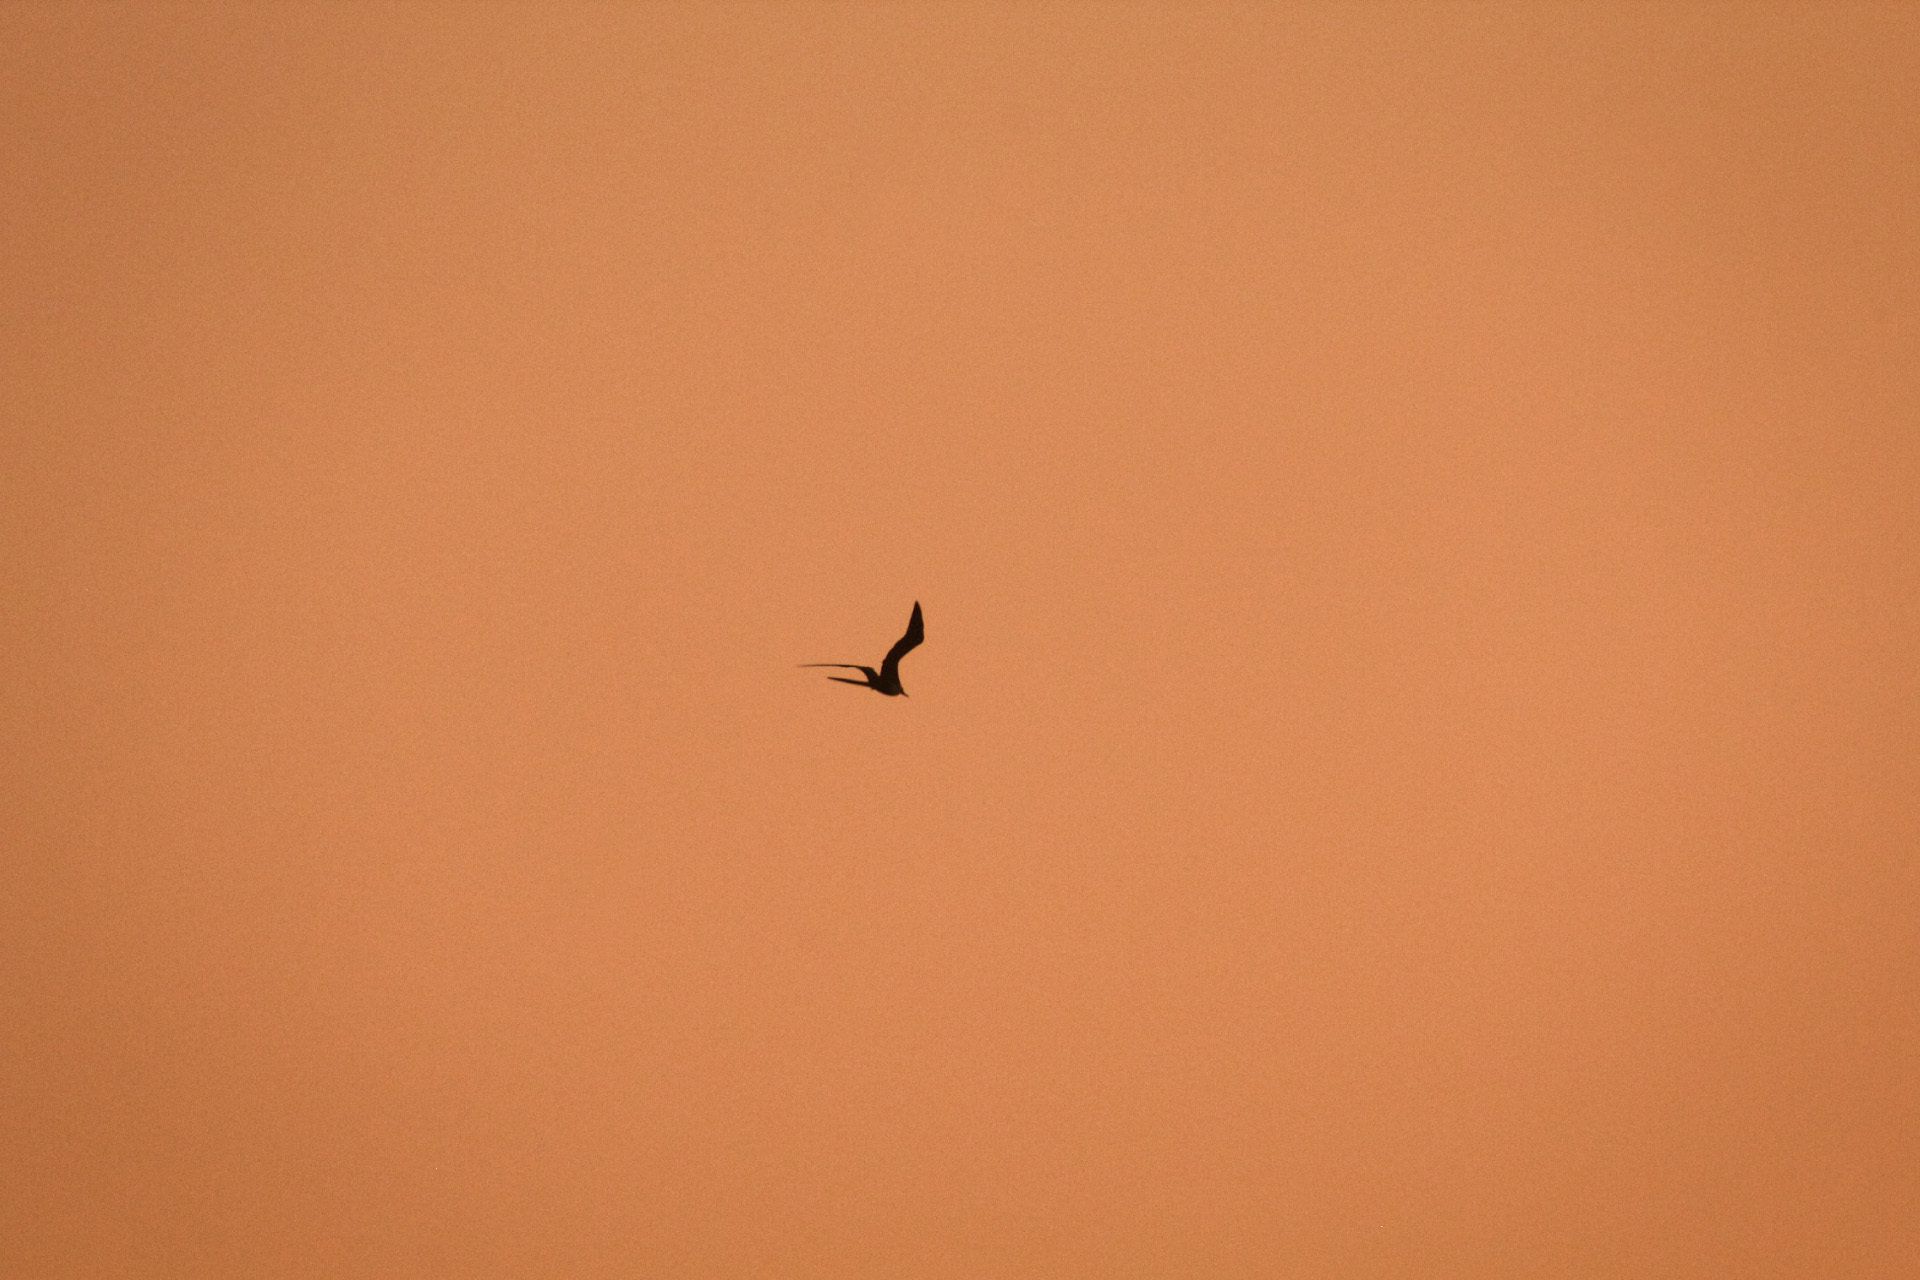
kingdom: Animalia
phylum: Chordata
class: Aves
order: Suliformes
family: Fregatidae
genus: Fregata
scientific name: Fregata magnificens
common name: Magnificent frigatebird
